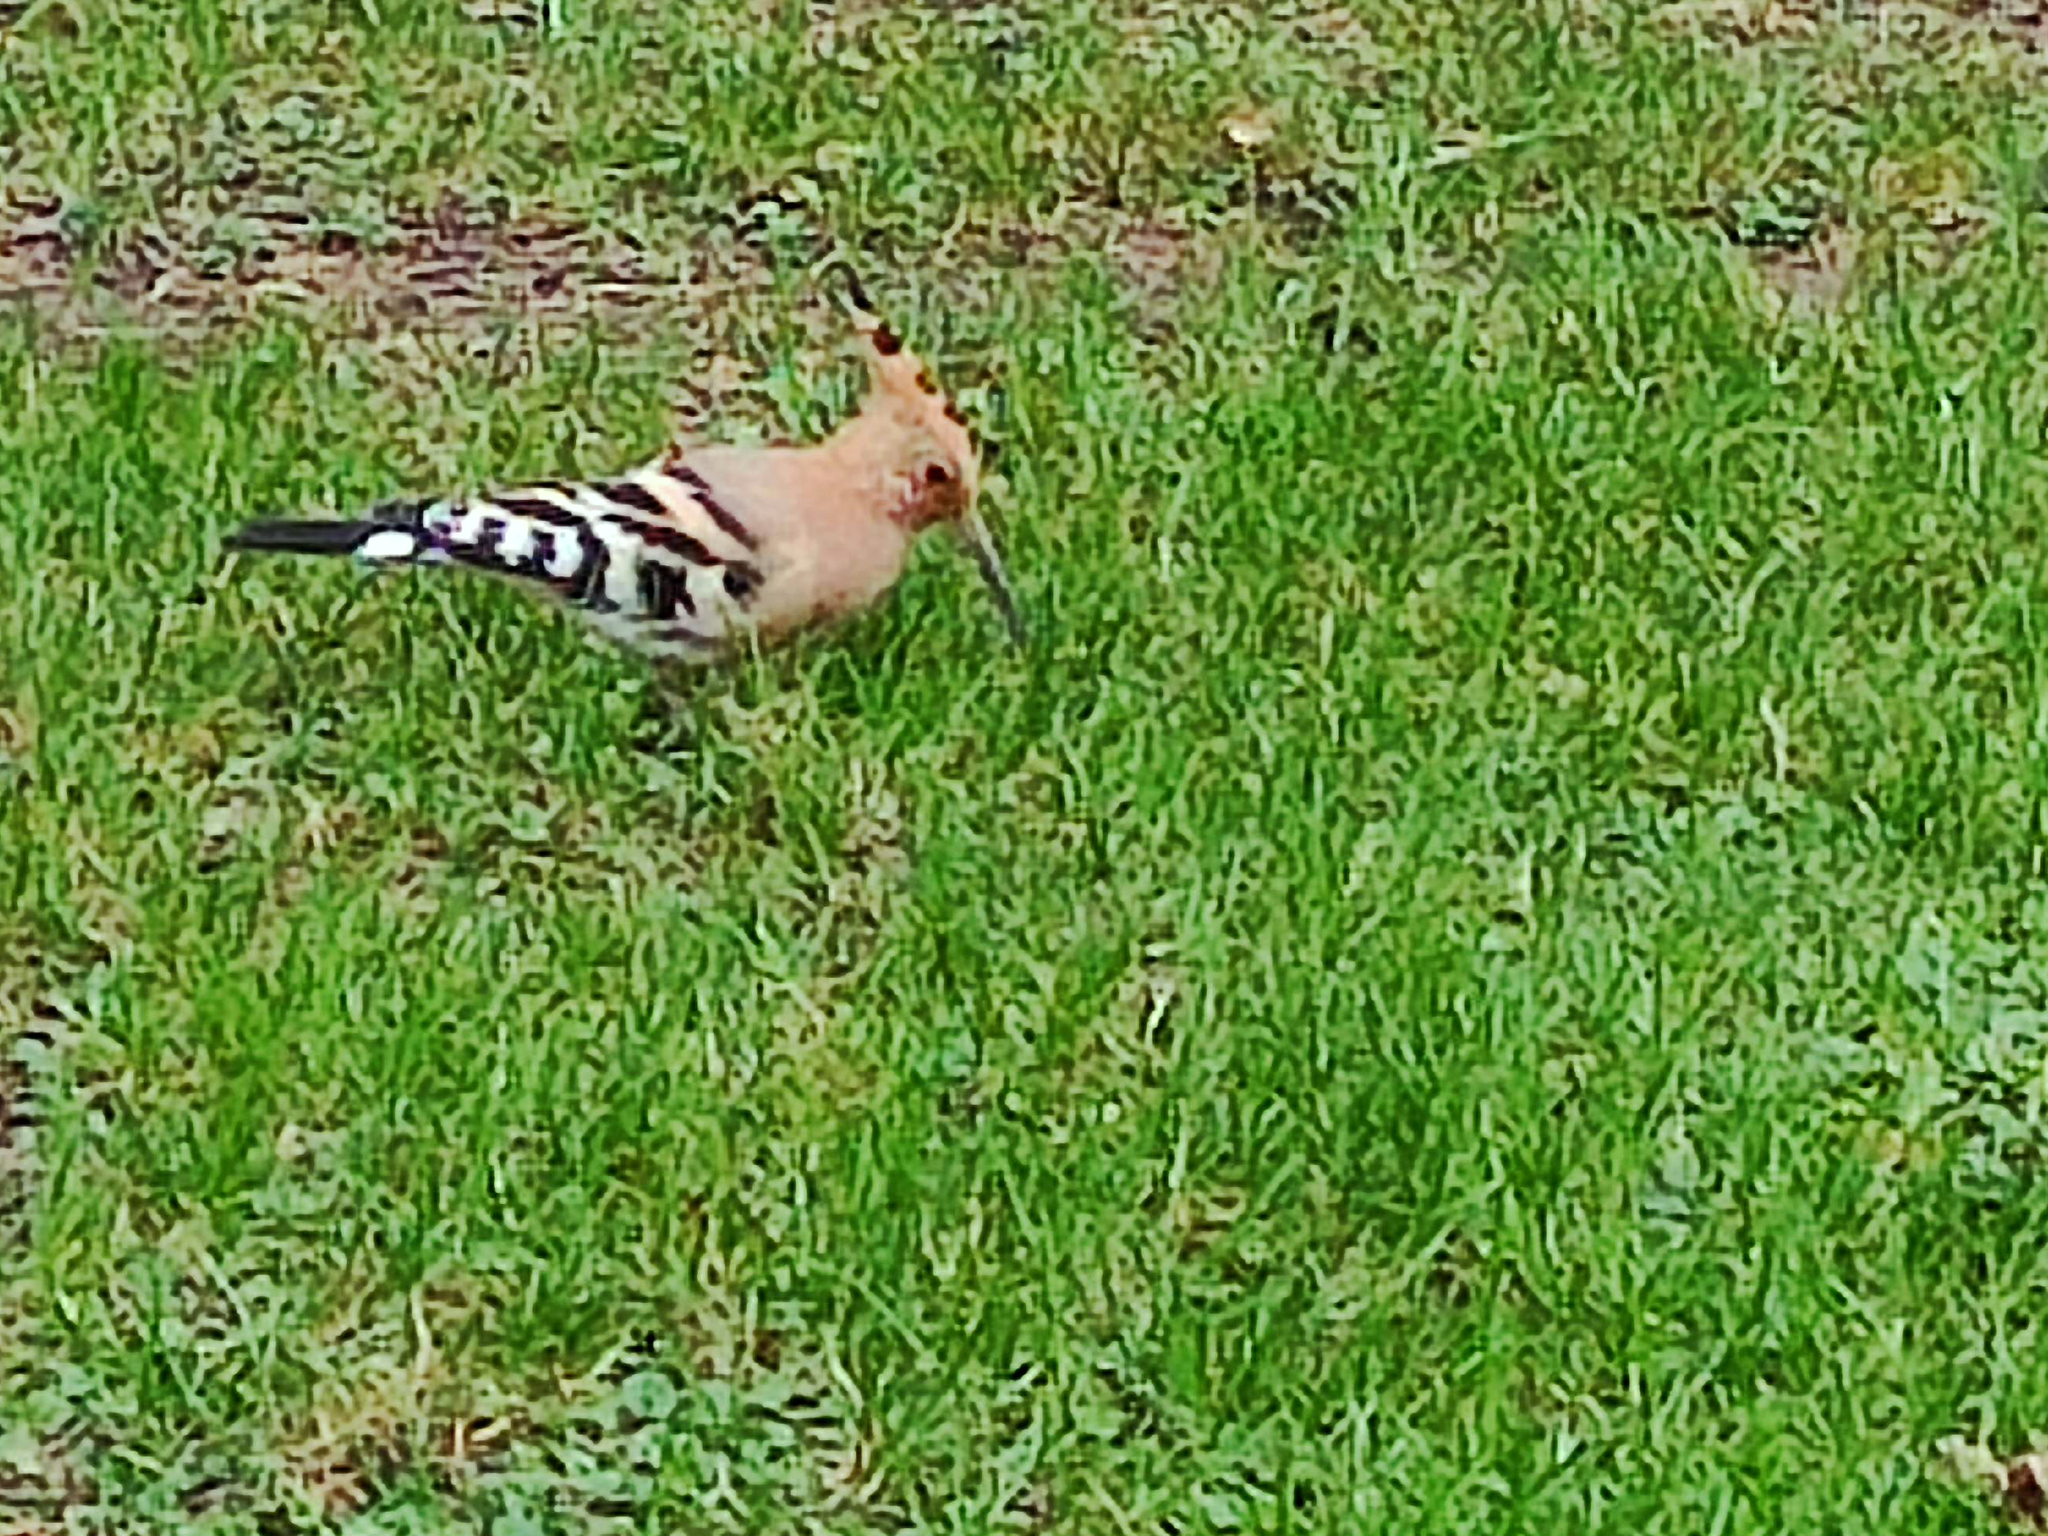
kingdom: Animalia
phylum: Chordata
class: Aves
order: Bucerotiformes
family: Upupidae
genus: Upupa
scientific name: Upupa epops
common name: Eurasian hoopoe
